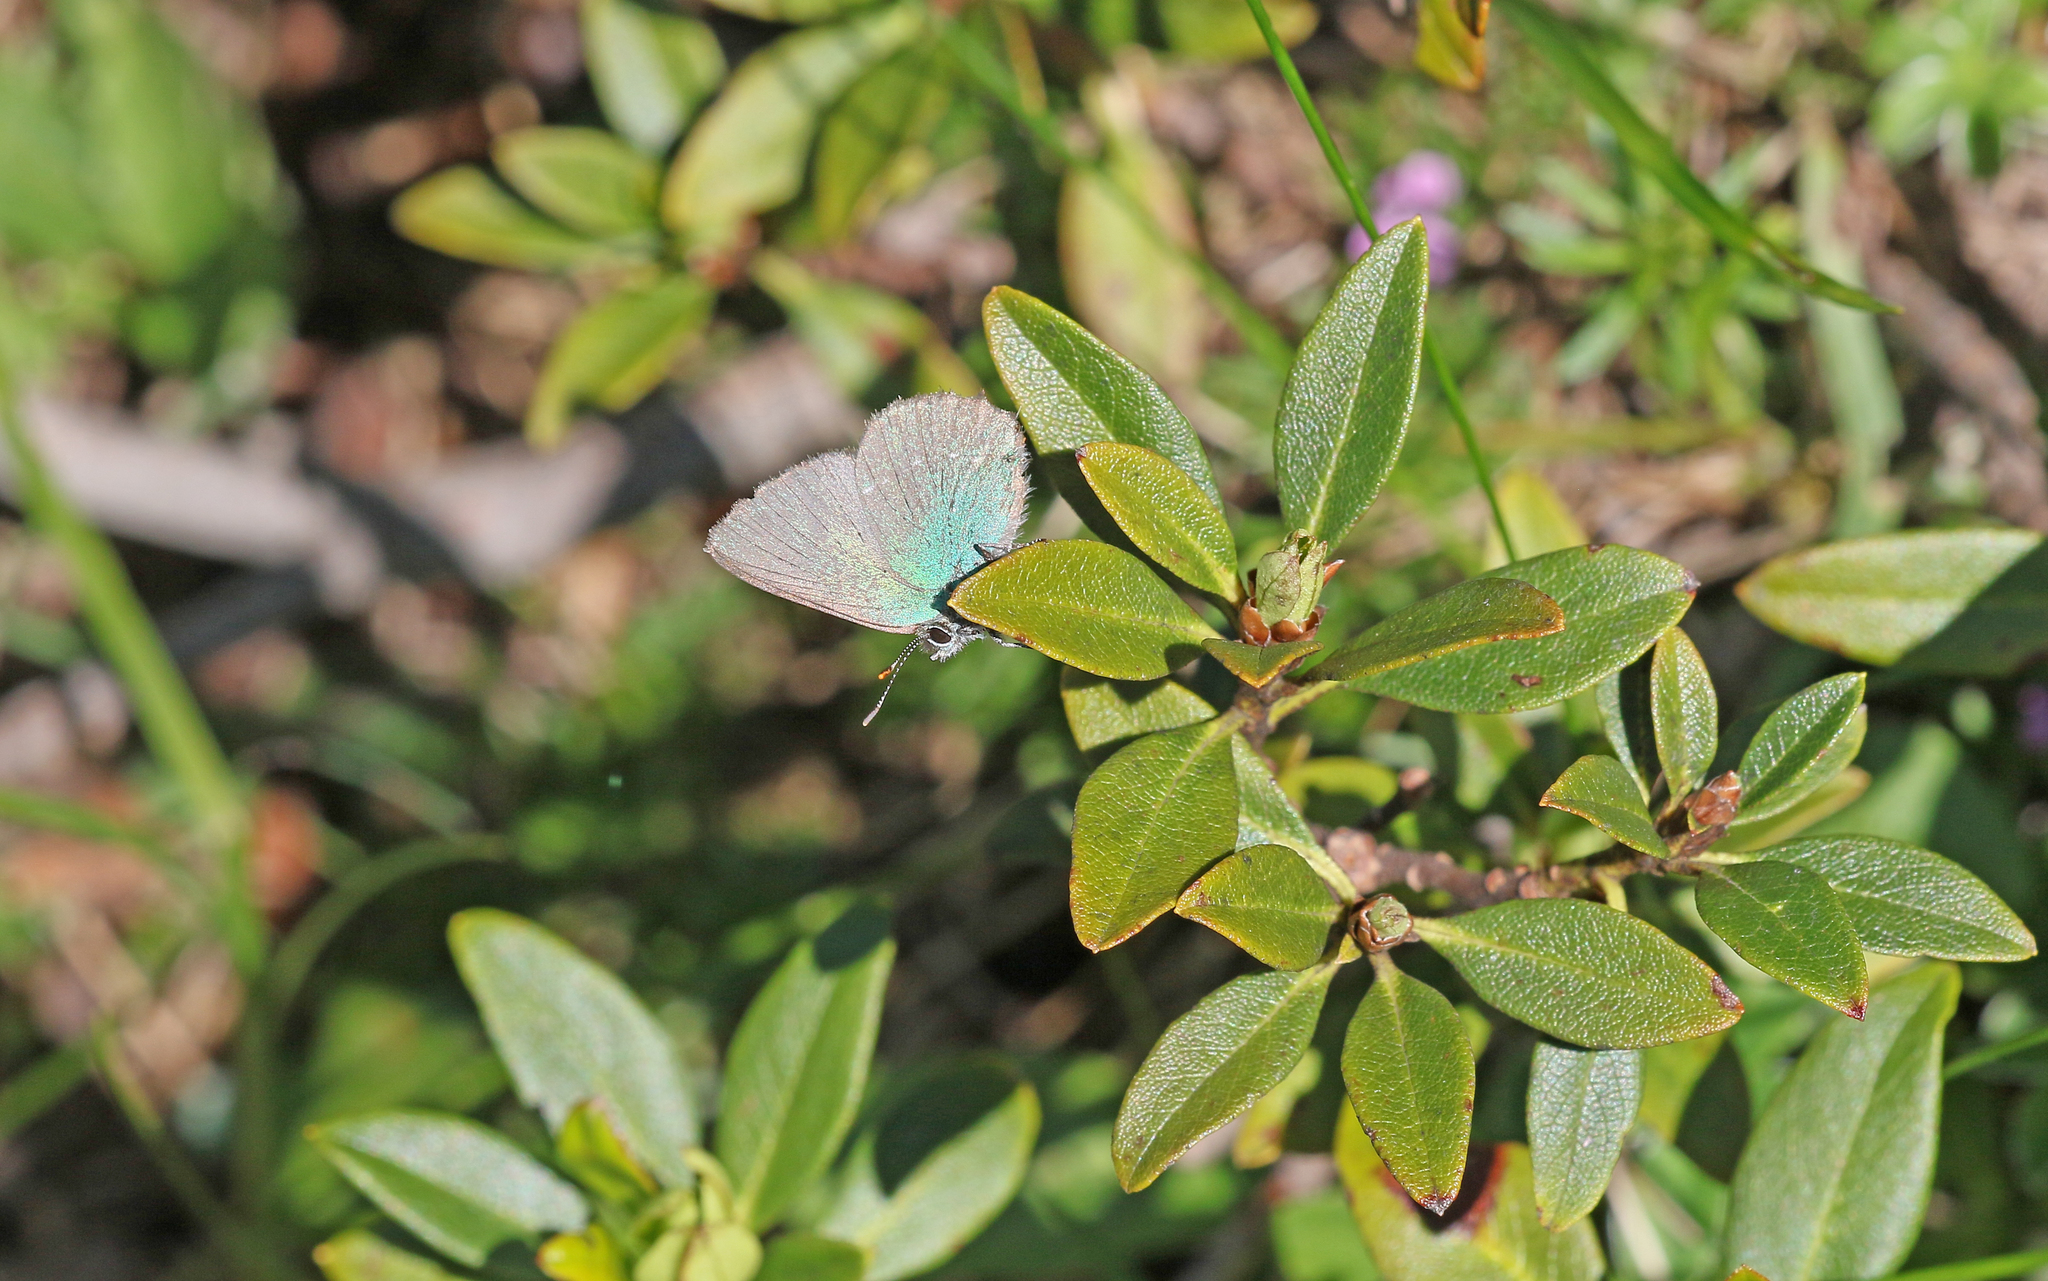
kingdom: Animalia
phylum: Arthropoda
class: Insecta
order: Lepidoptera
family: Lycaenidae
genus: Callophrys
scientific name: Callophrys rubi
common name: Green hairstreak
